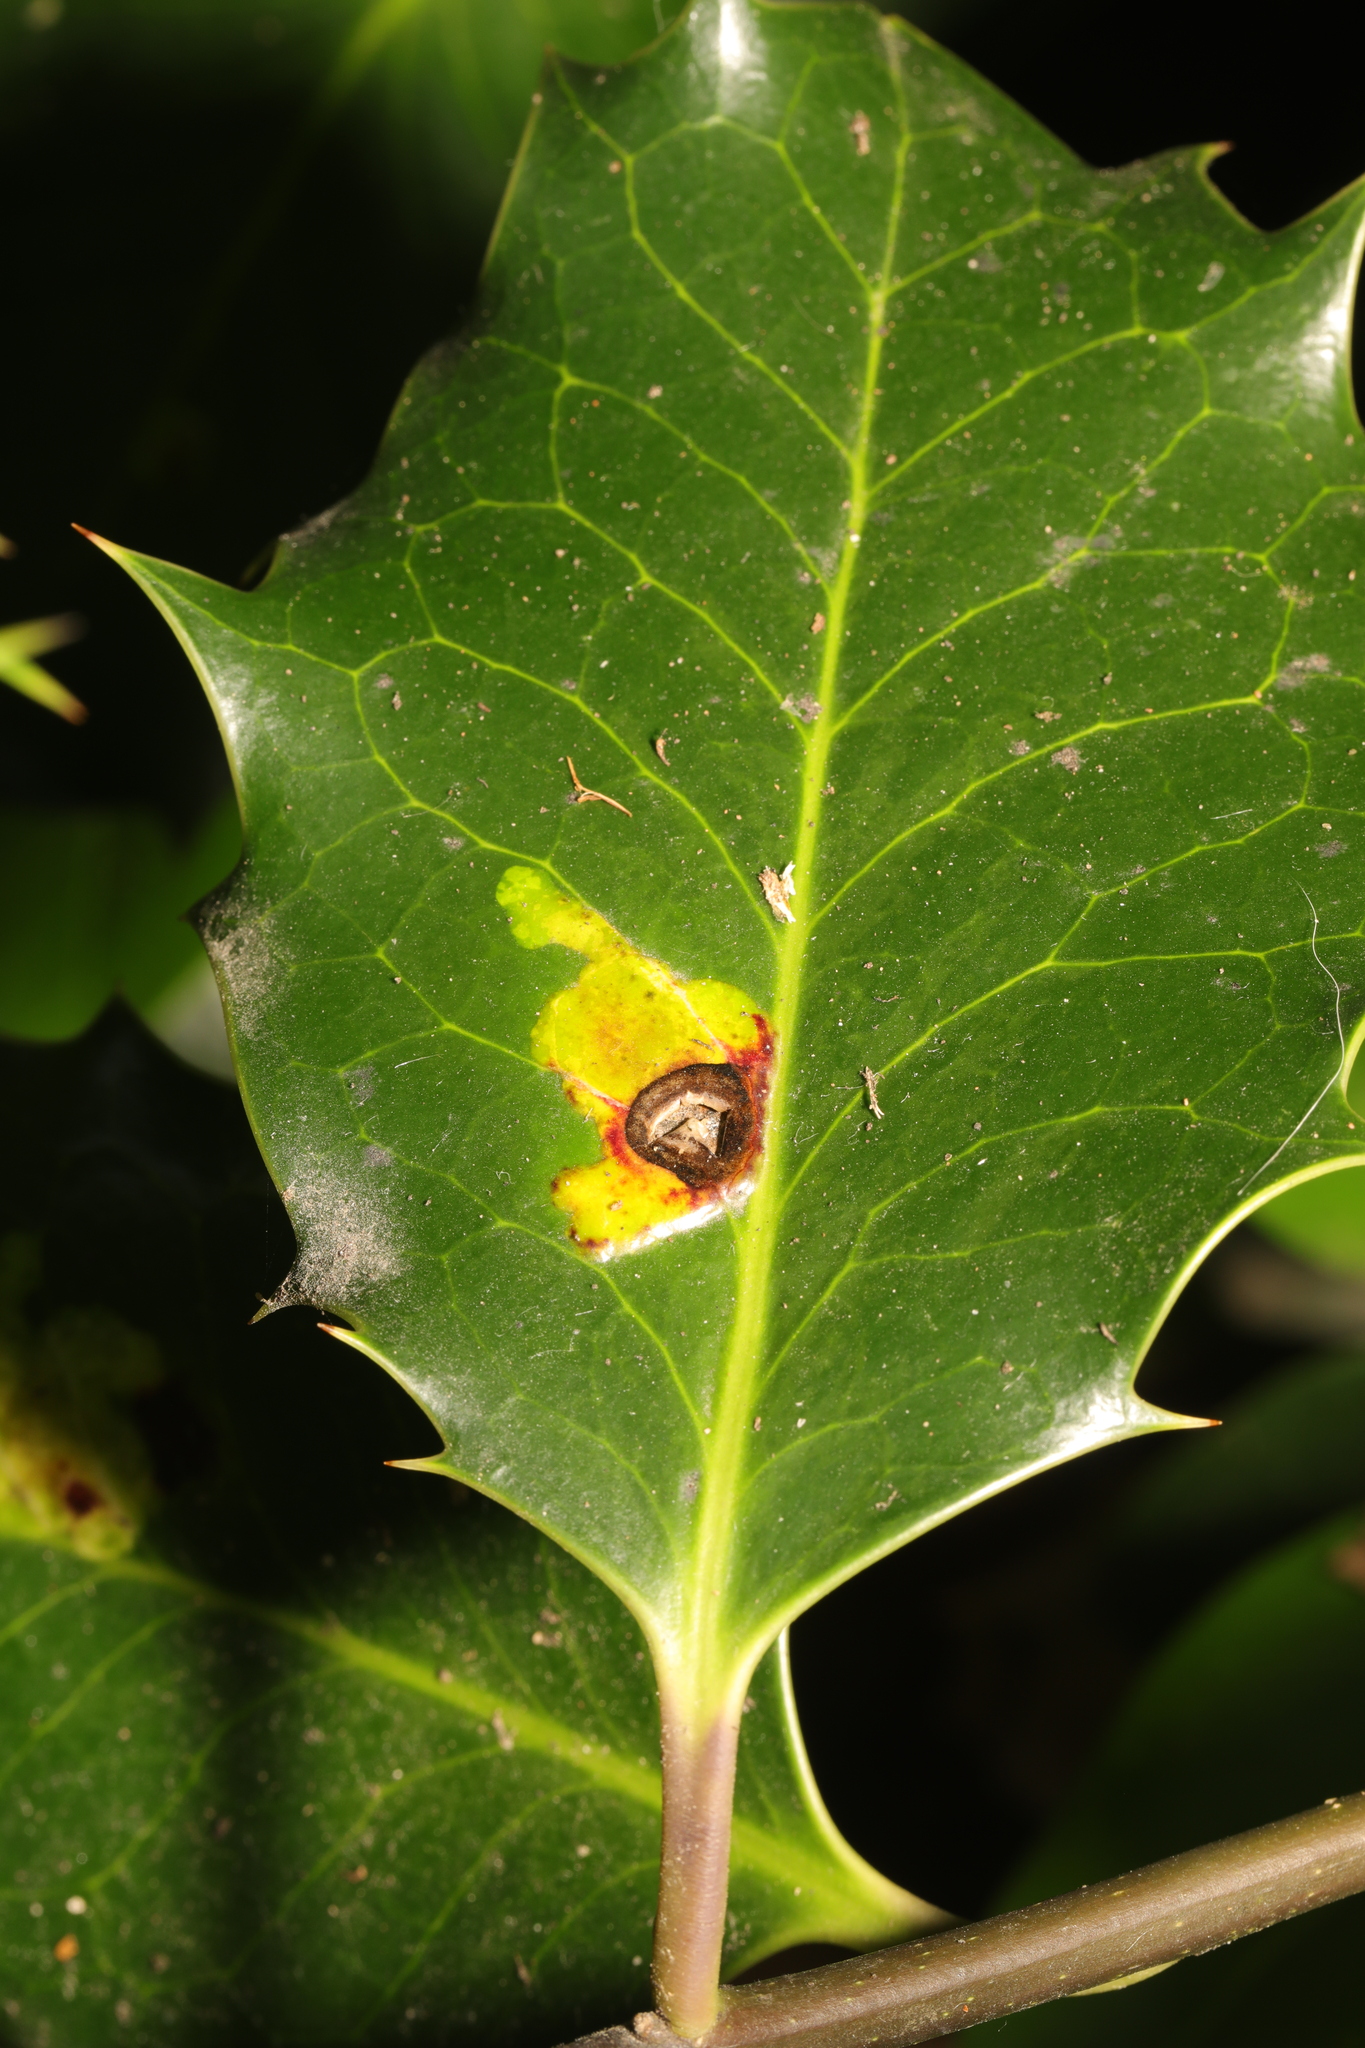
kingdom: Animalia
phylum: Arthropoda
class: Insecta
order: Diptera
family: Agromyzidae
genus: Phytomyza
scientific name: Phytomyza ilicis
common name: Holly leafminer
